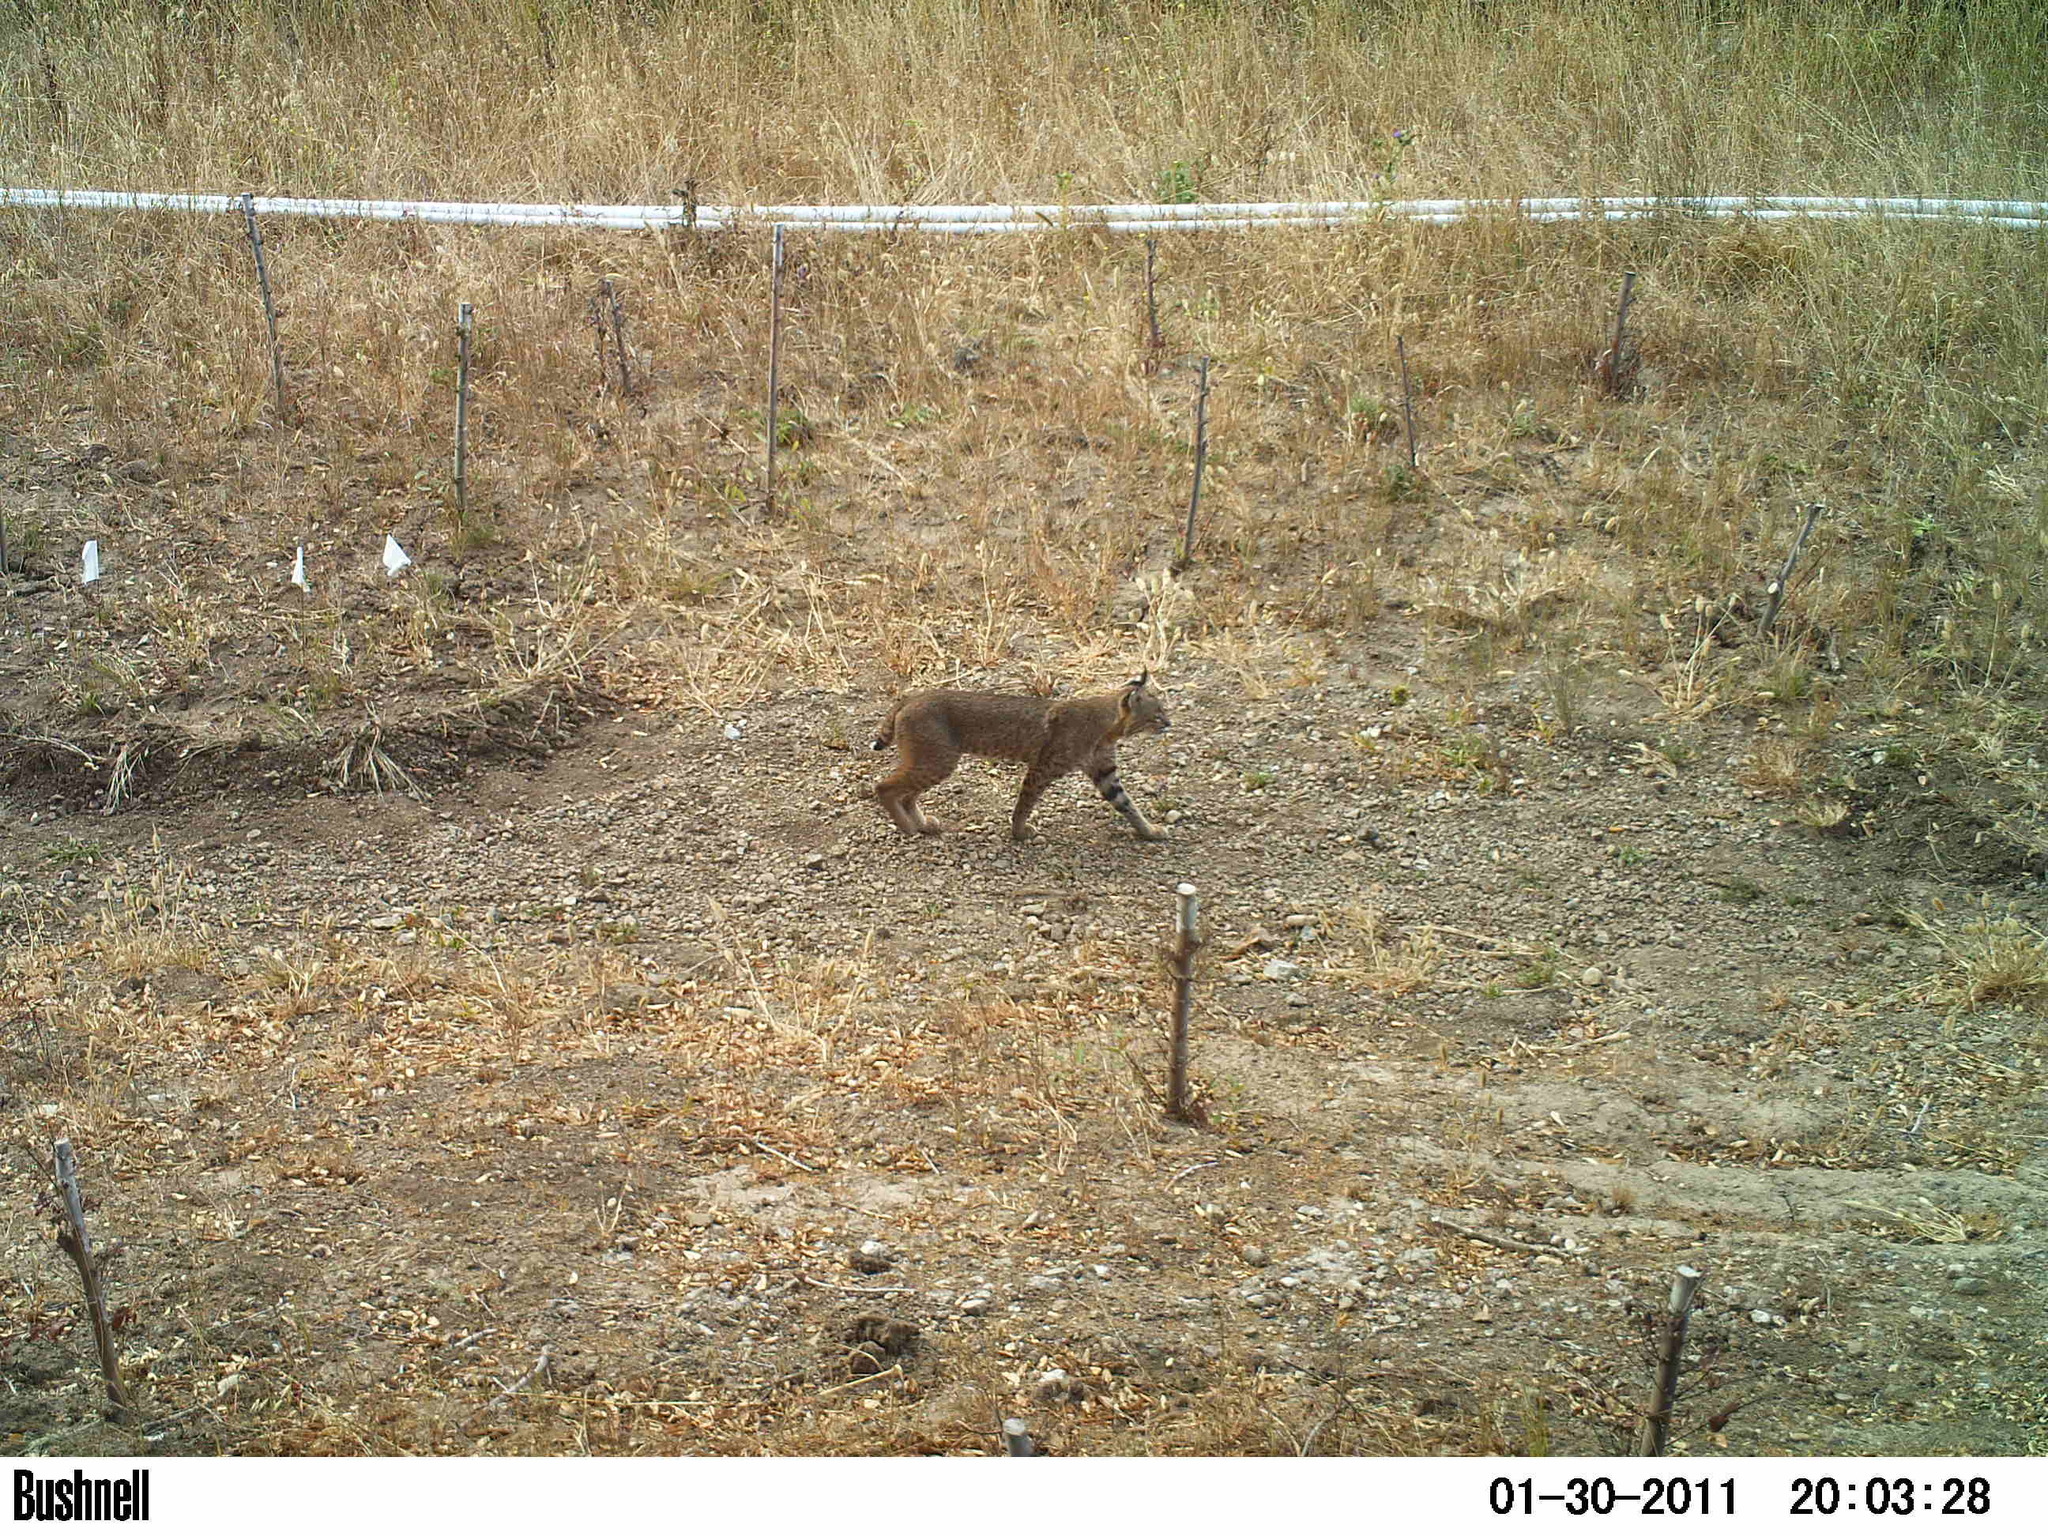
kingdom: Animalia
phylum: Chordata
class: Mammalia
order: Carnivora
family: Felidae
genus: Lynx
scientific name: Lynx rufus
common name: Bobcat
